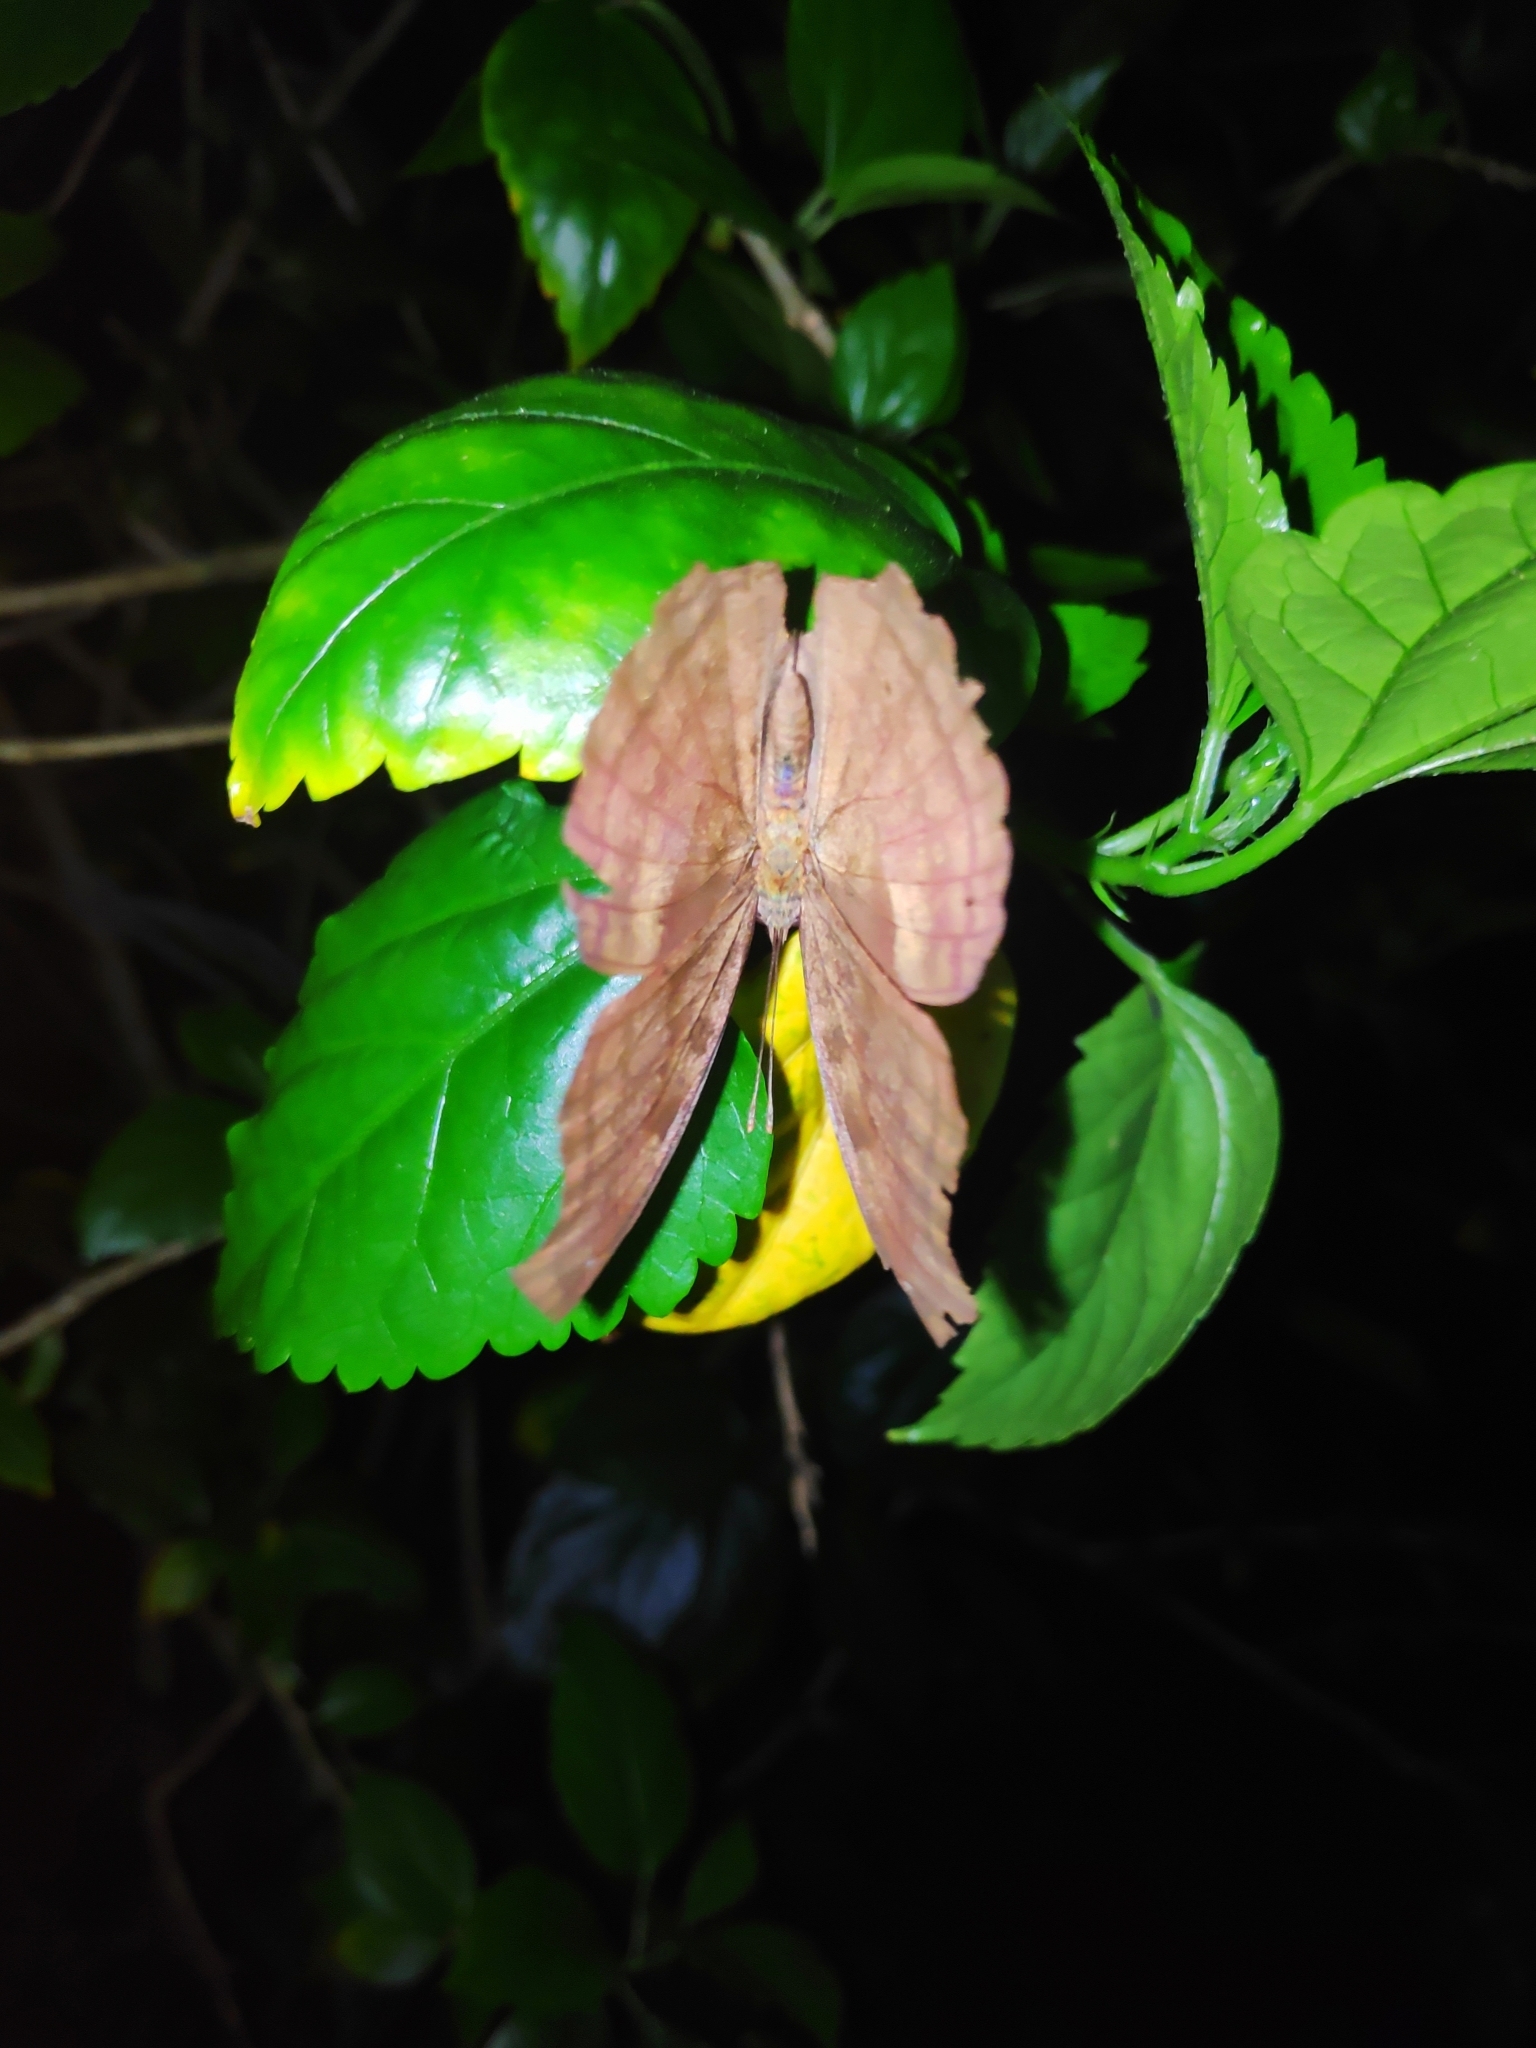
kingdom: Animalia
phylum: Arthropoda
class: Insecta
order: Lepidoptera
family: Nymphalidae
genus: Junonia
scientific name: Junonia iphita
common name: Chocolate pansy
